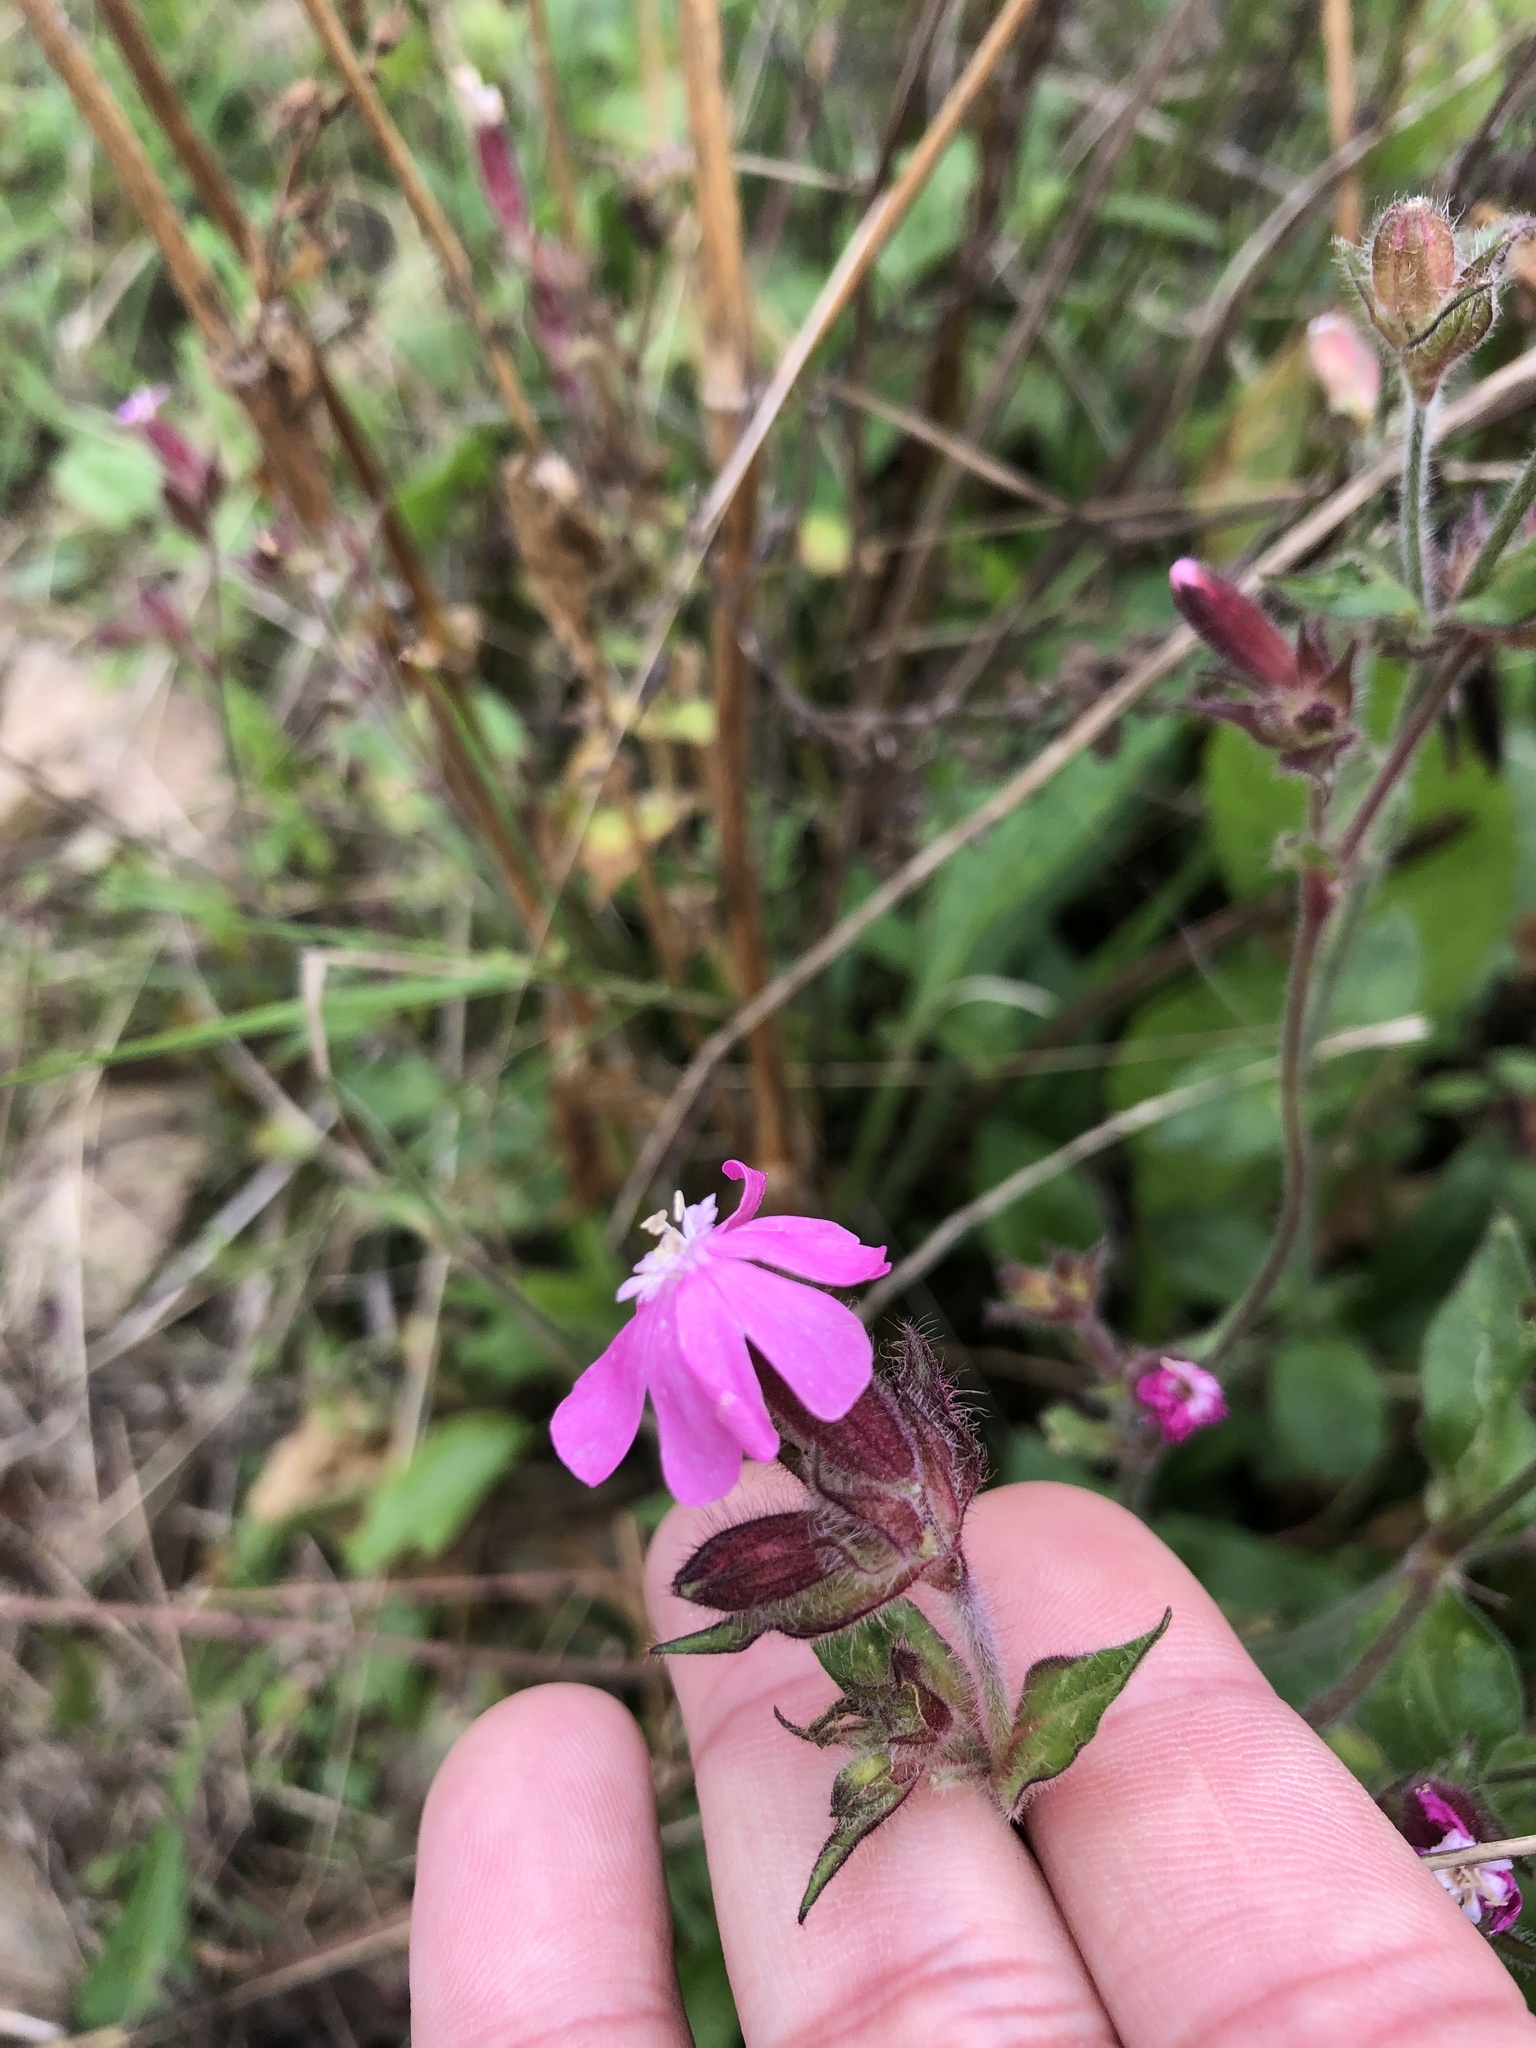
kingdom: Plantae
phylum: Tracheophyta
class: Magnoliopsida
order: Caryophyllales
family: Caryophyllaceae
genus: Silene
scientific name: Silene dioica
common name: Red campion
